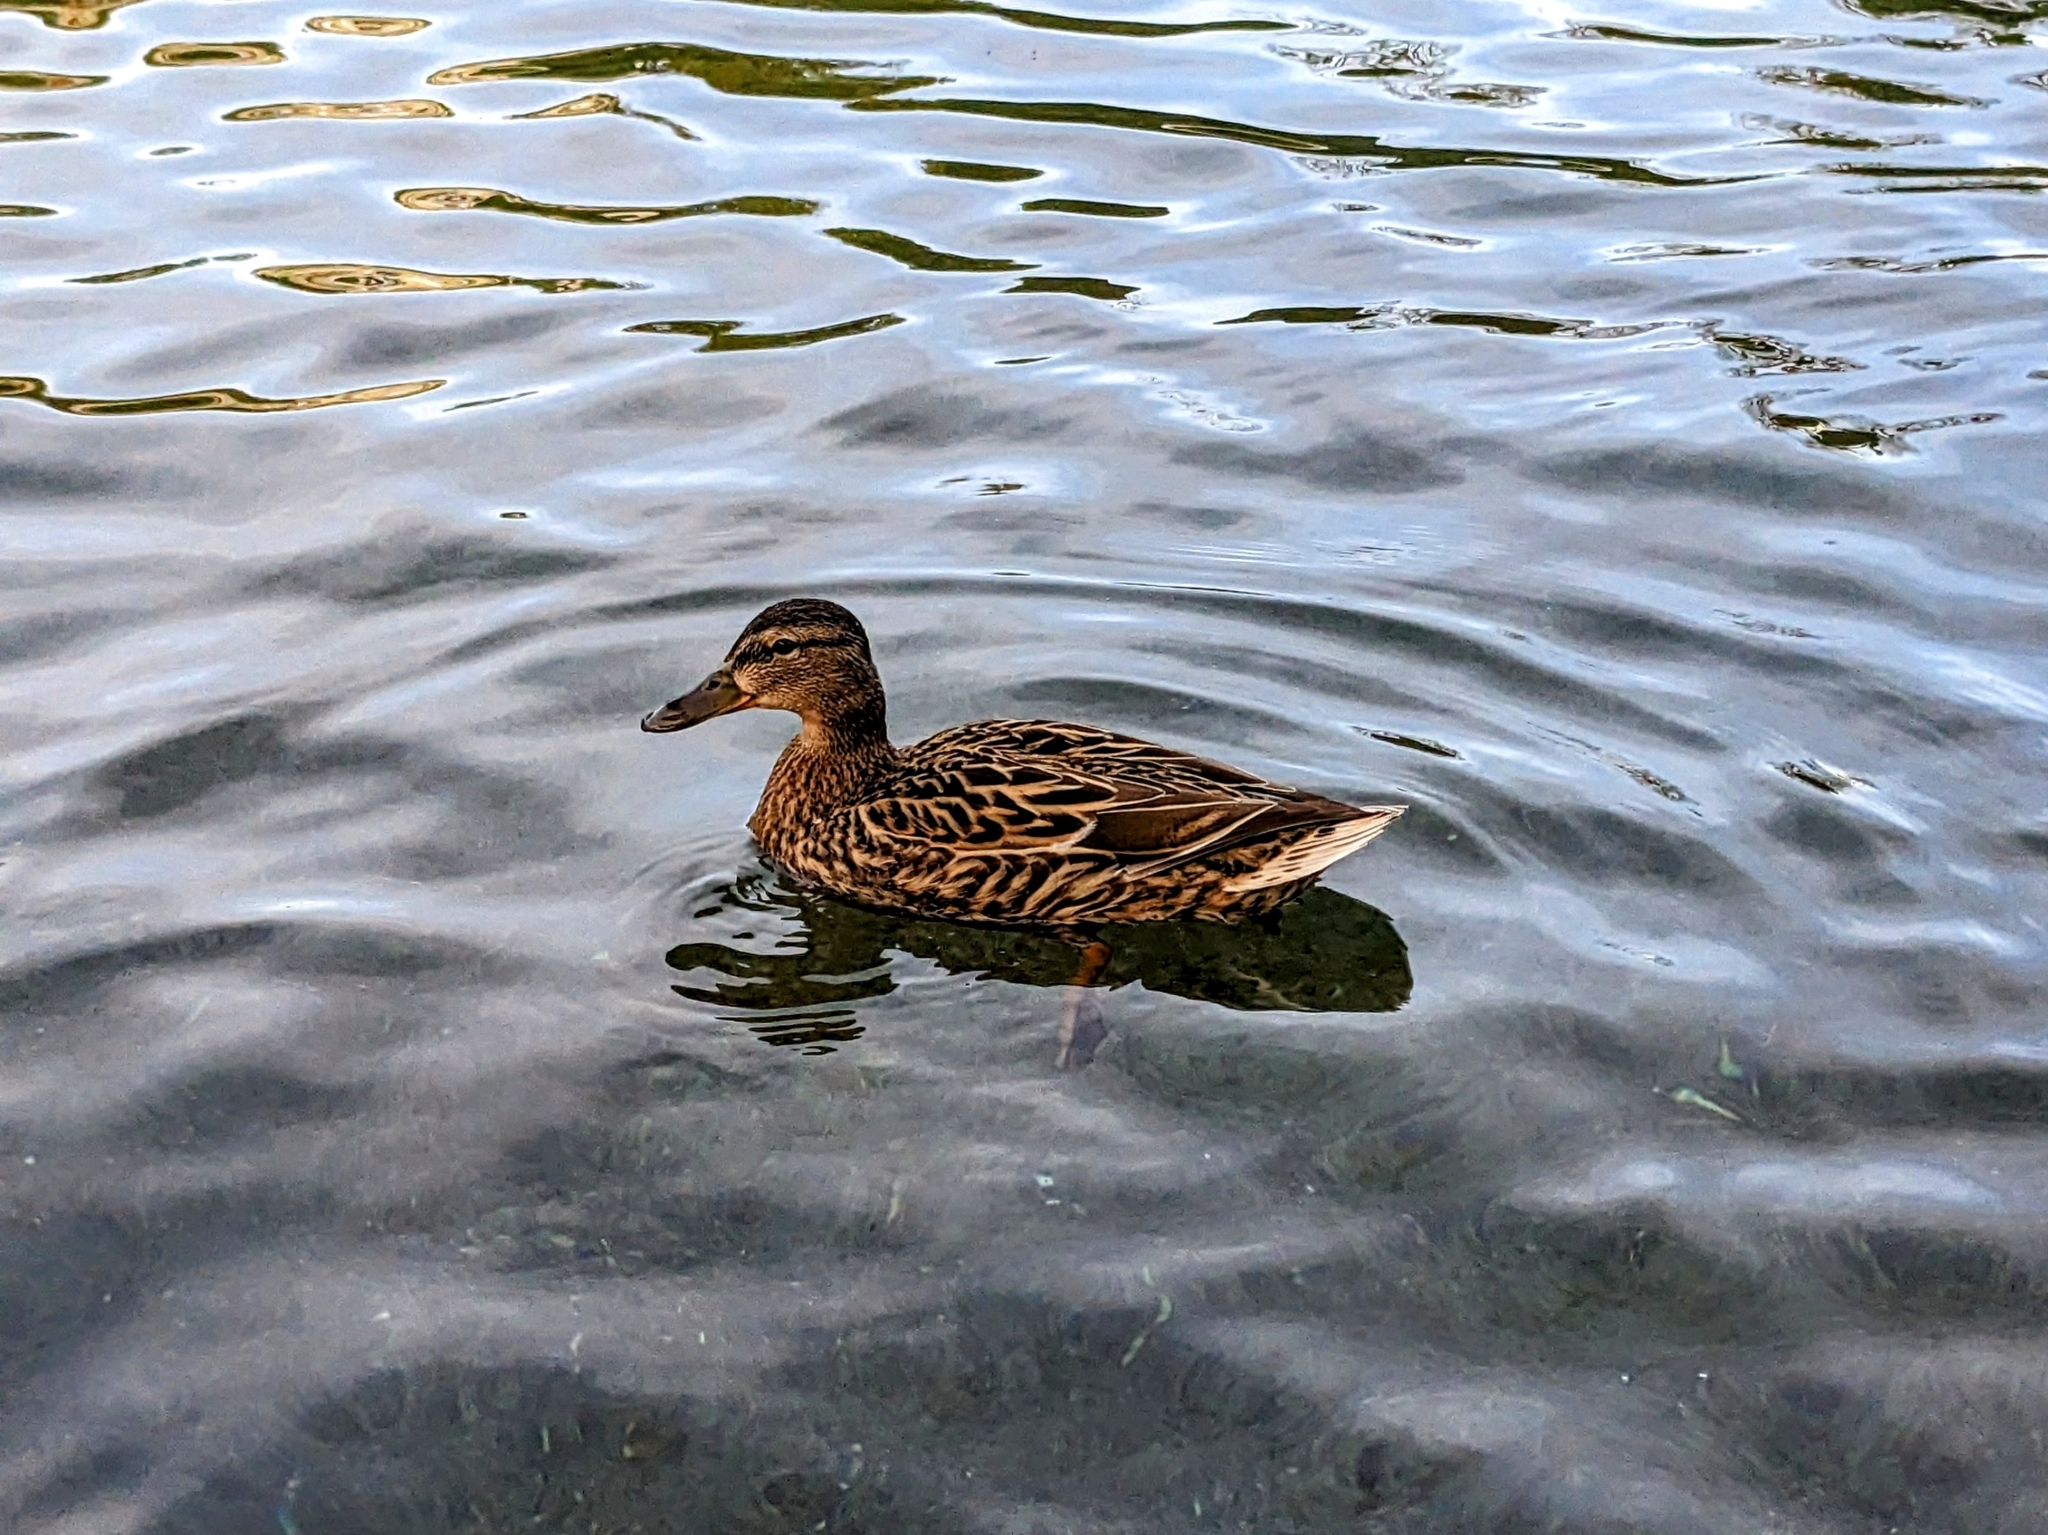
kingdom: Animalia
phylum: Chordata
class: Aves
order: Anseriformes
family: Anatidae
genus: Anas
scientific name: Anas platyrhynchos
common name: Mallard
